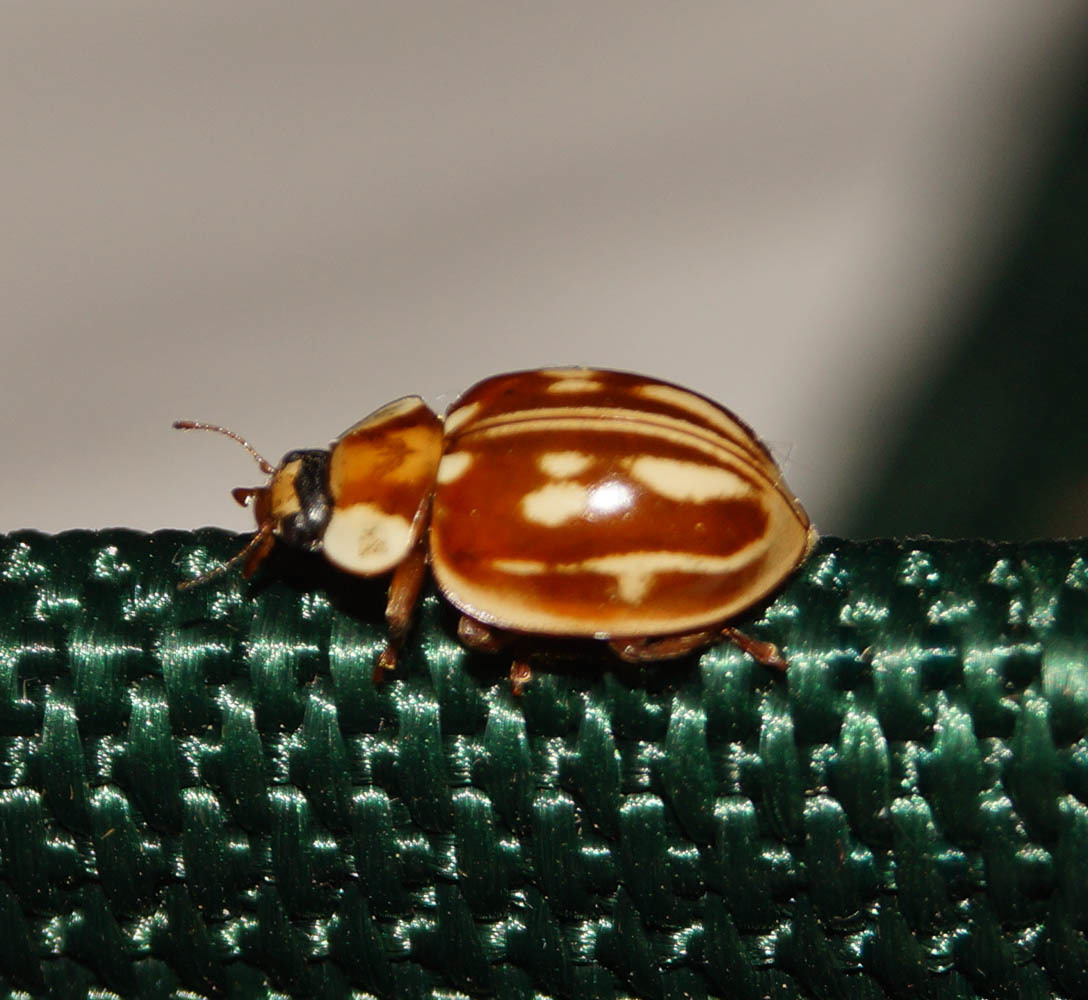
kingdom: Animalia
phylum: Arthropoda
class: Insecta
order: Coleoptera
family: Coccinellidae
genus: Myzia
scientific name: Myzia oblongoguttata
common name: Striped ladybird
